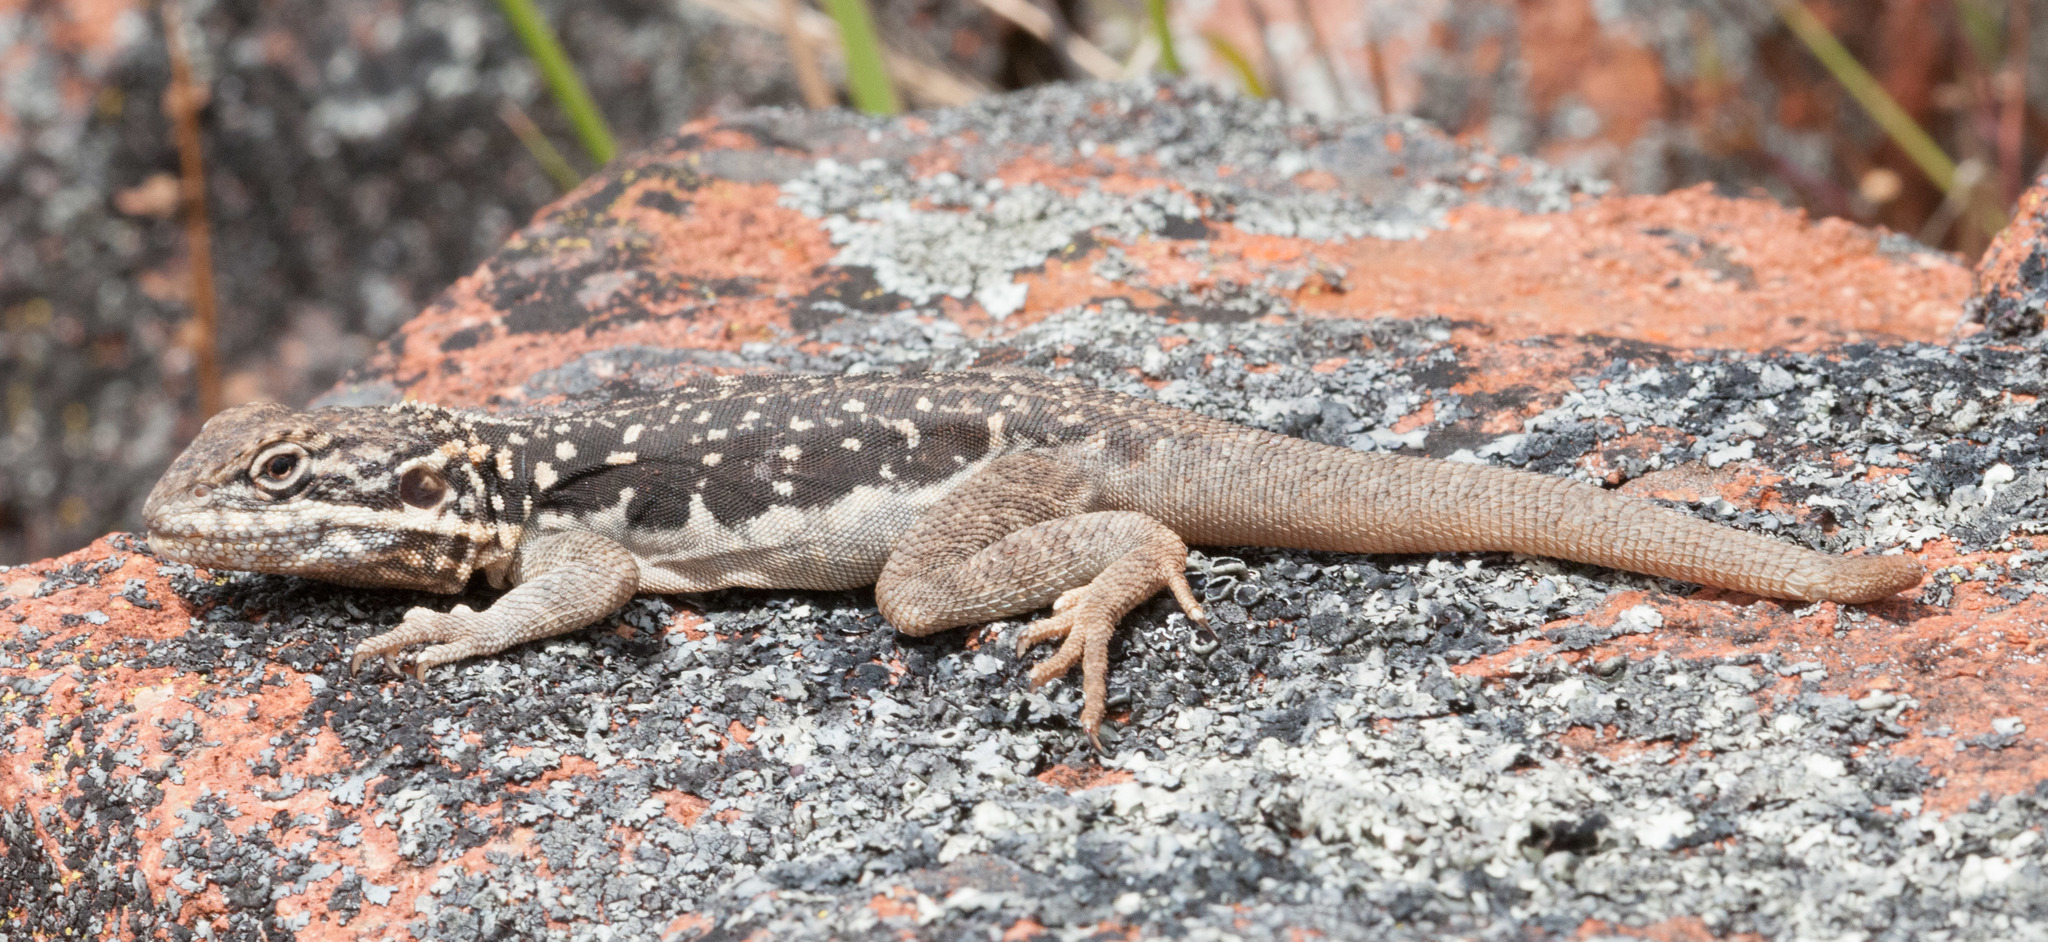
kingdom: Animalia
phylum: Chordata
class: Squamata
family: Agamidae
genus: Ctenophorus
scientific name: Ctenophorus fionni
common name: Peninsula crevis-dragon
